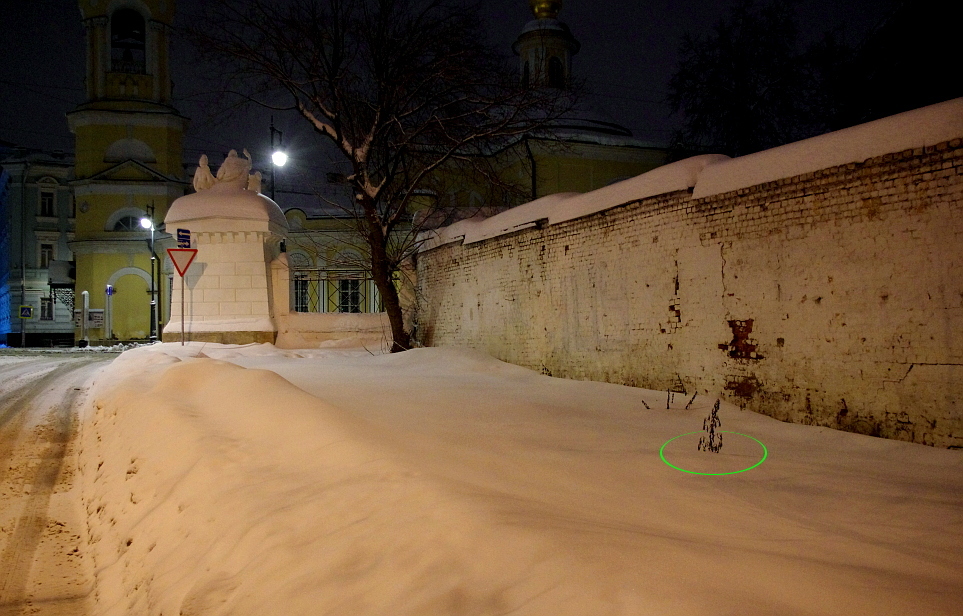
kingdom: Plantae
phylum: Tracheophyta
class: Magnoliopsida
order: Asterales
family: Asteraceae
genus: Artemisia
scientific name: Artemisia vulgaris
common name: Mugwort
